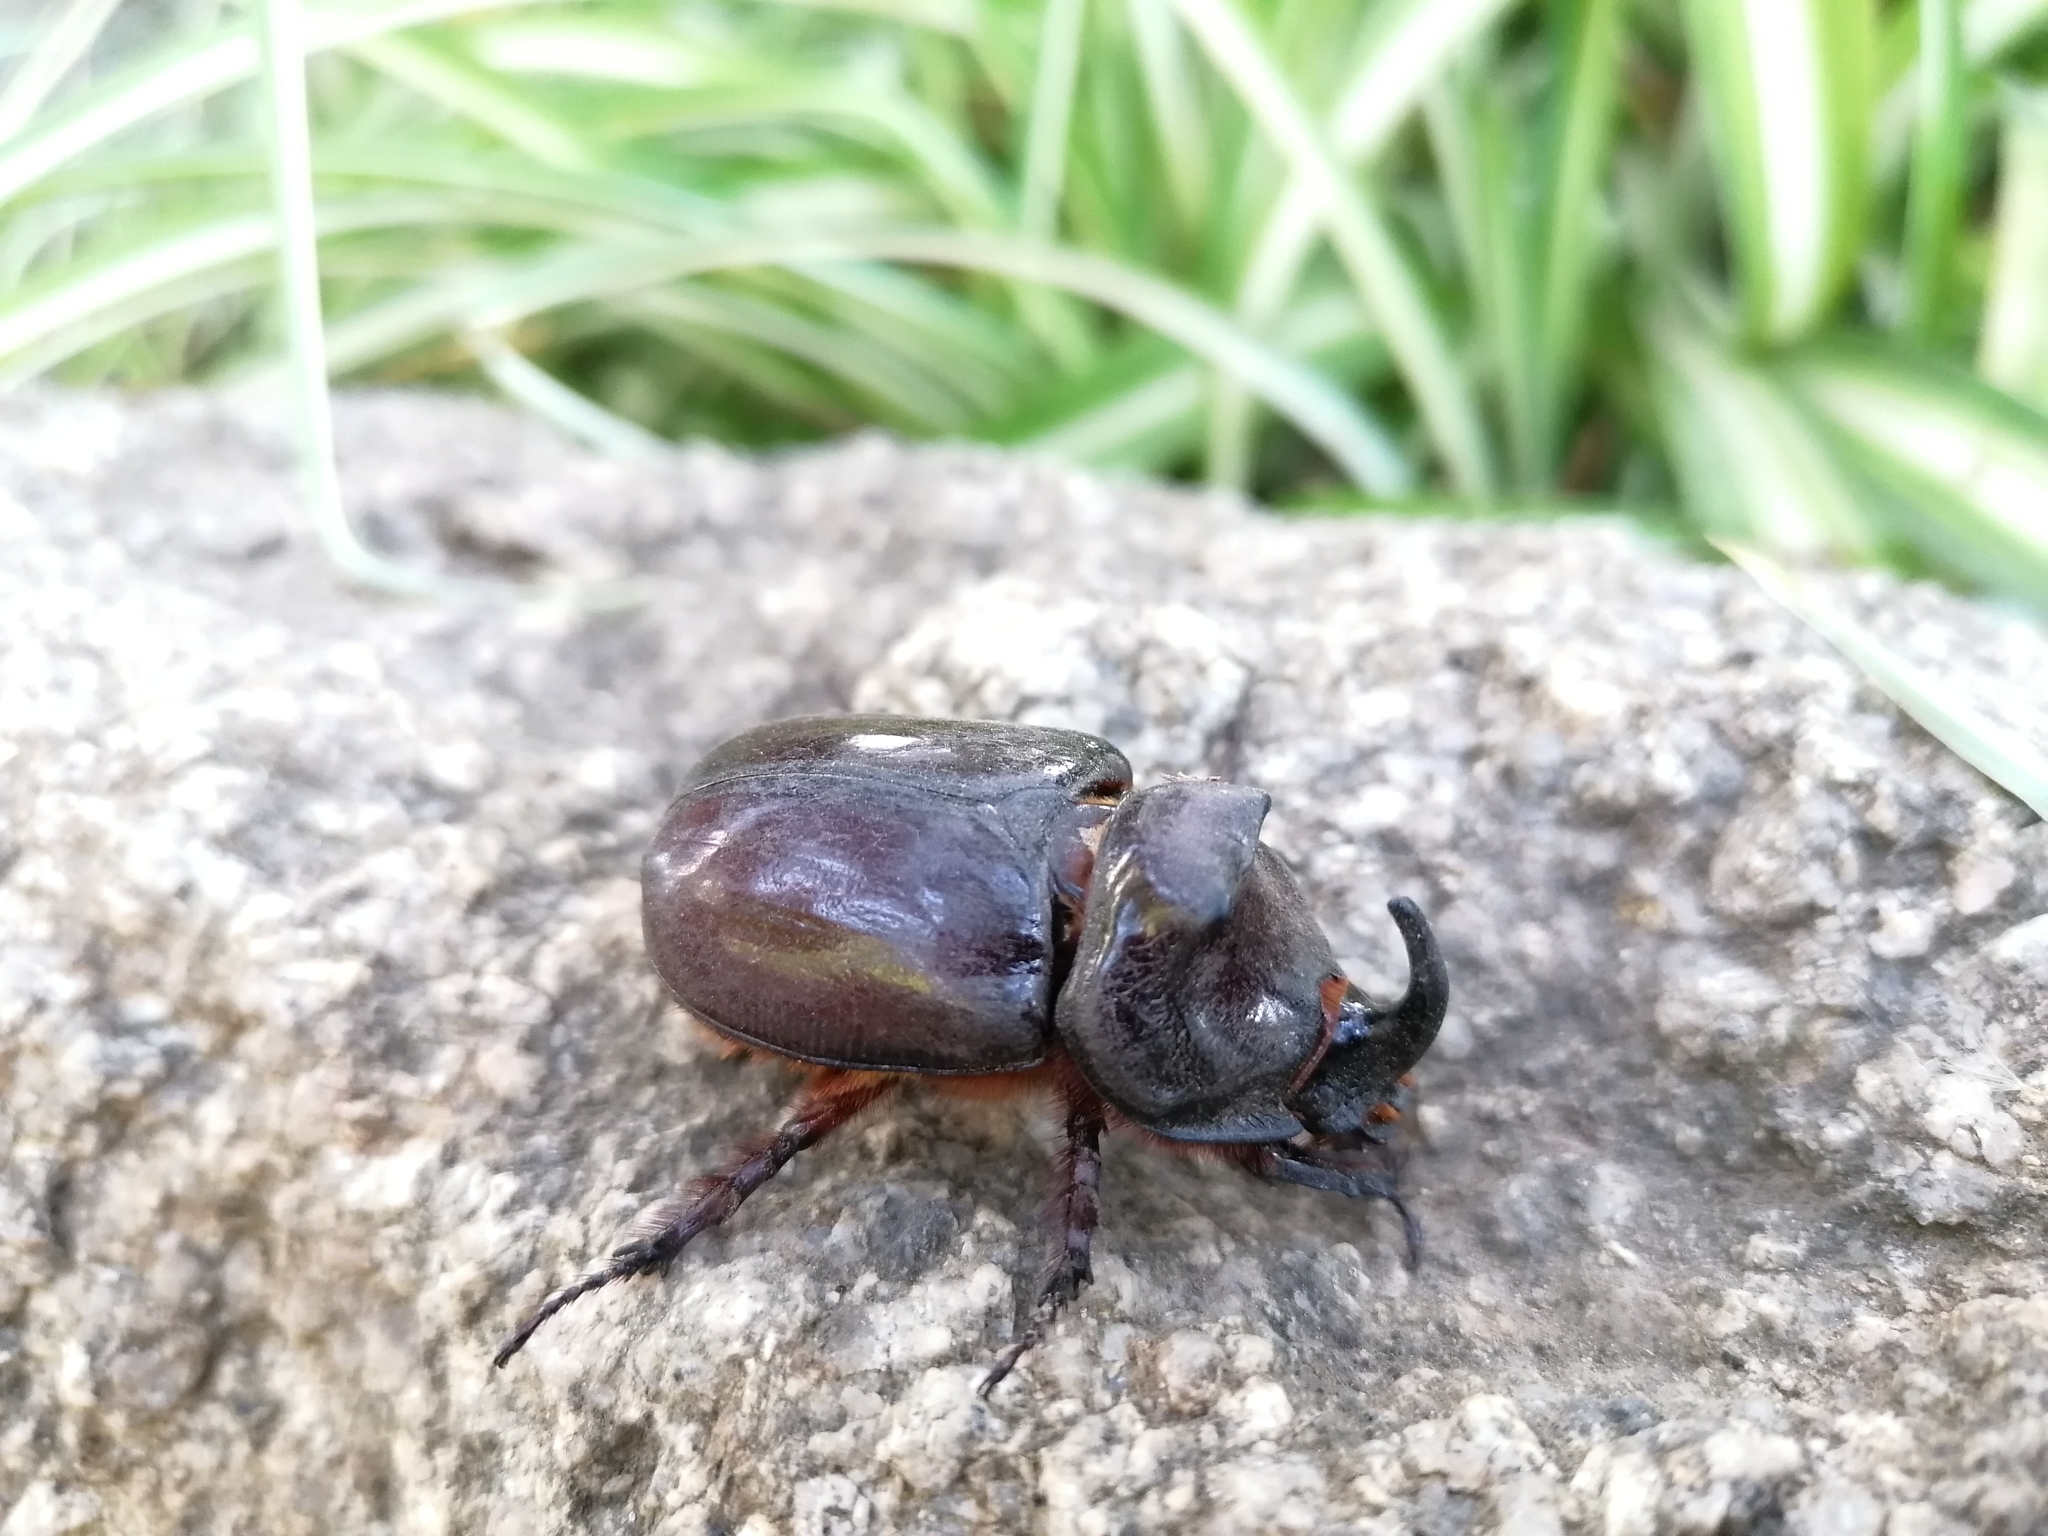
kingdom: Animalia
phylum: Arthropoda
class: Insecta
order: Coleoptera
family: Scarabaeidae
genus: Oryctes
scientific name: Oryctes nasicornis
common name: European rhinoceros beetle
